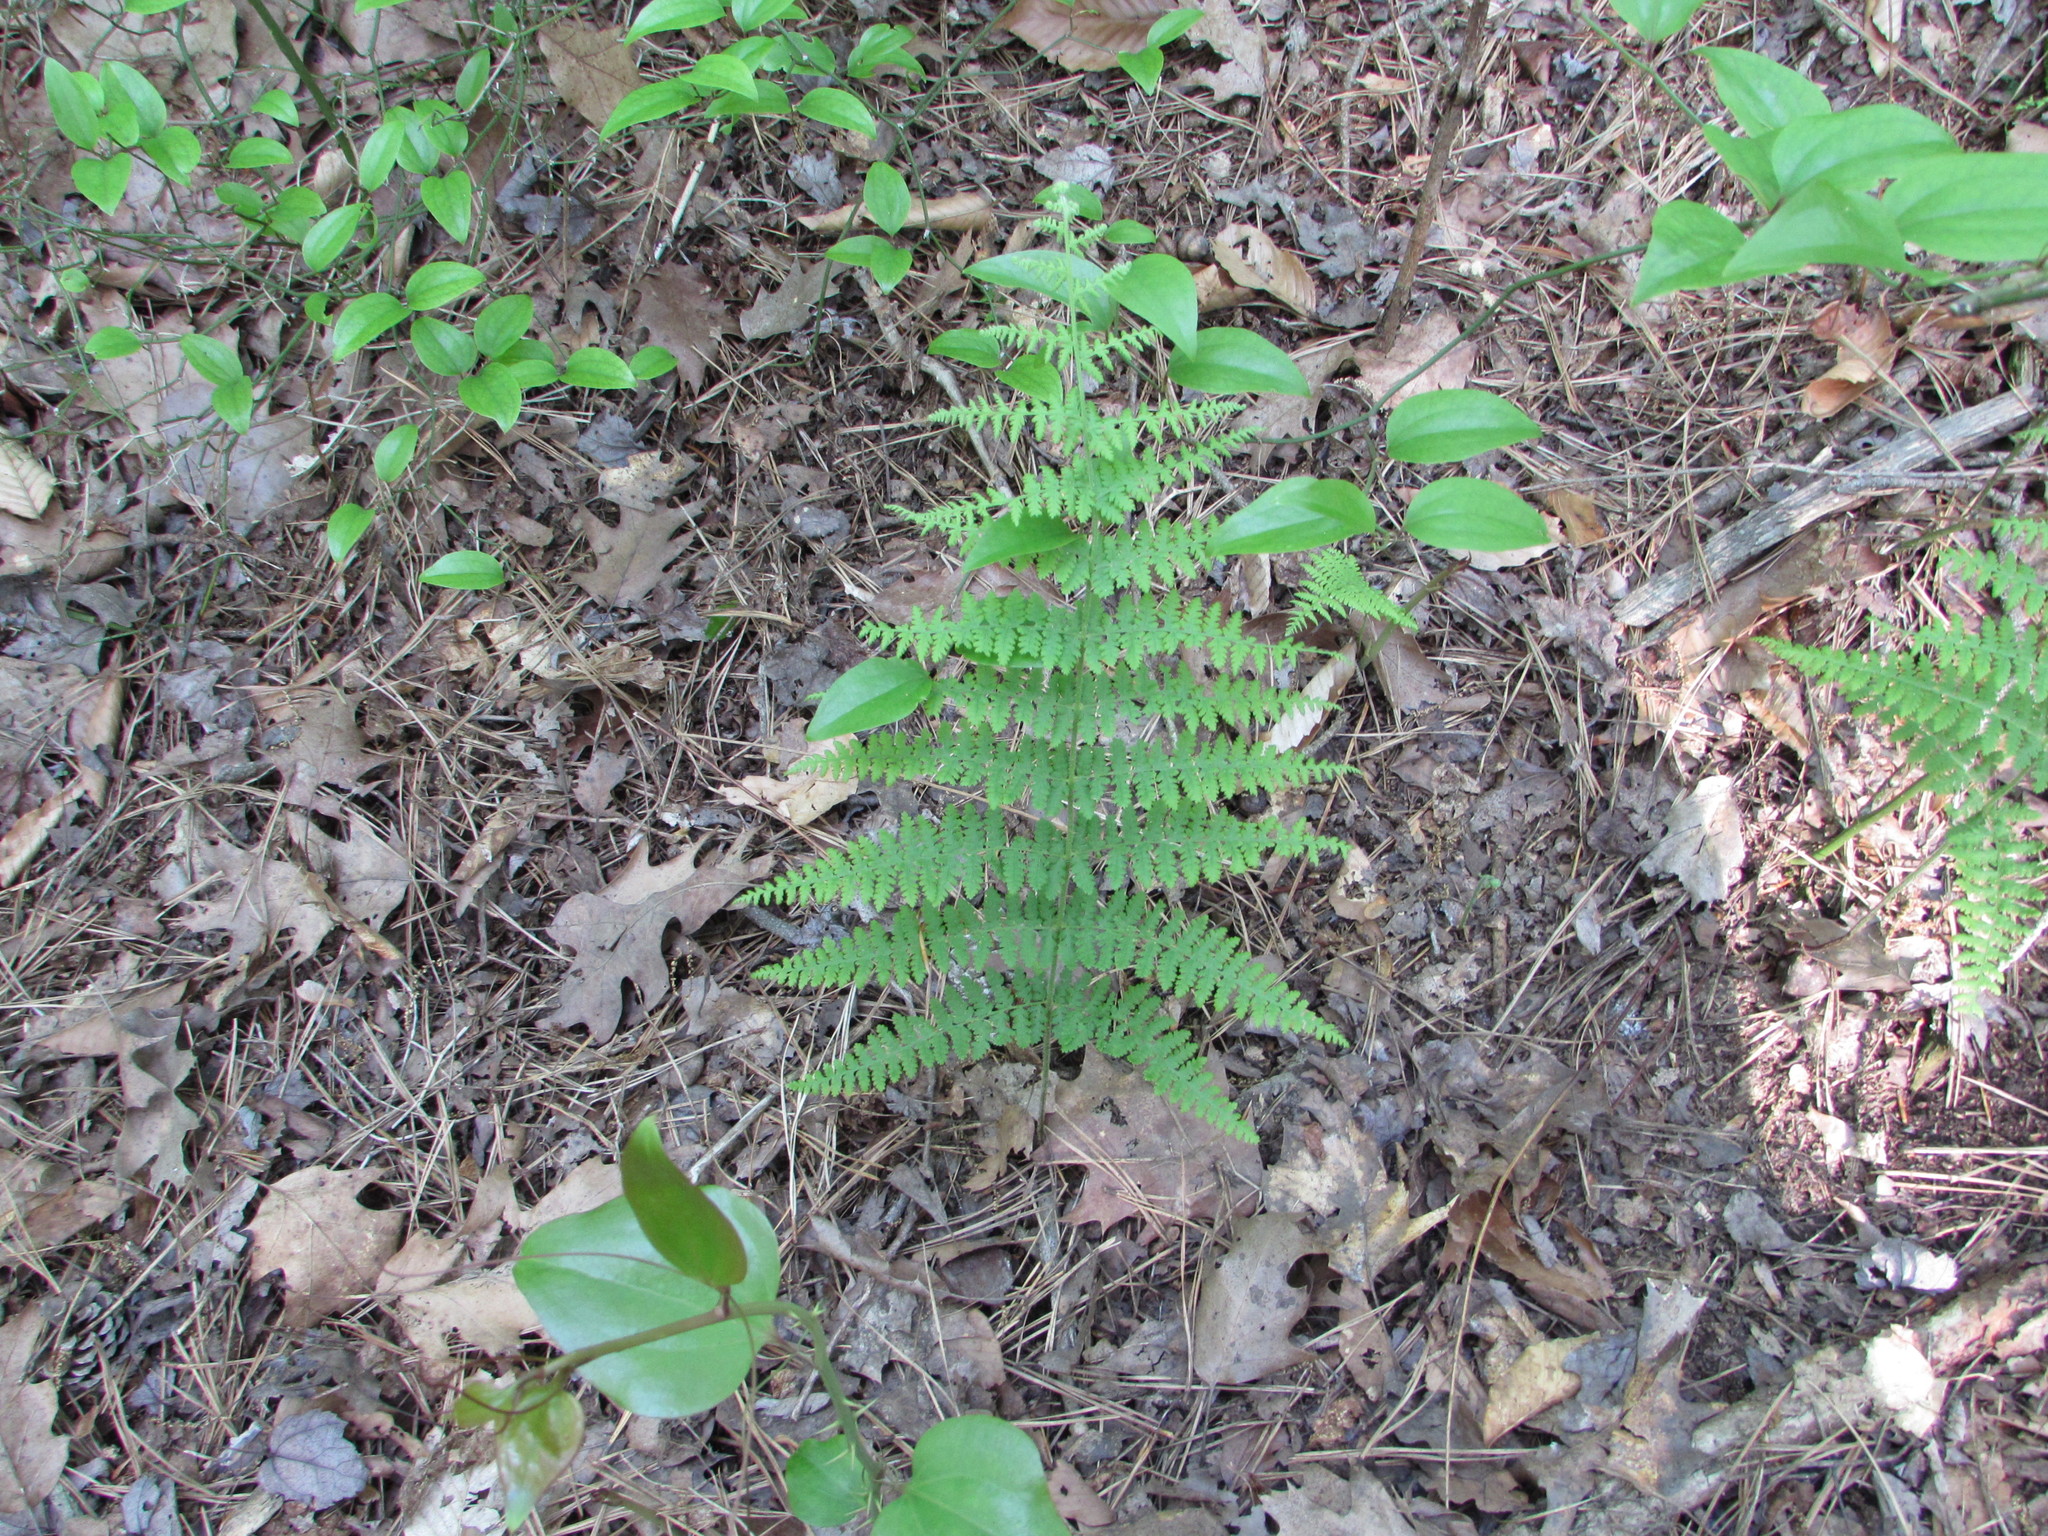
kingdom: Plantae
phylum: Tracheophyta
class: Polypodiopsida
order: Polypodiales
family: Dennstaedtiaceae
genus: Sitobolium
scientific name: Sitobolium punctilobum
